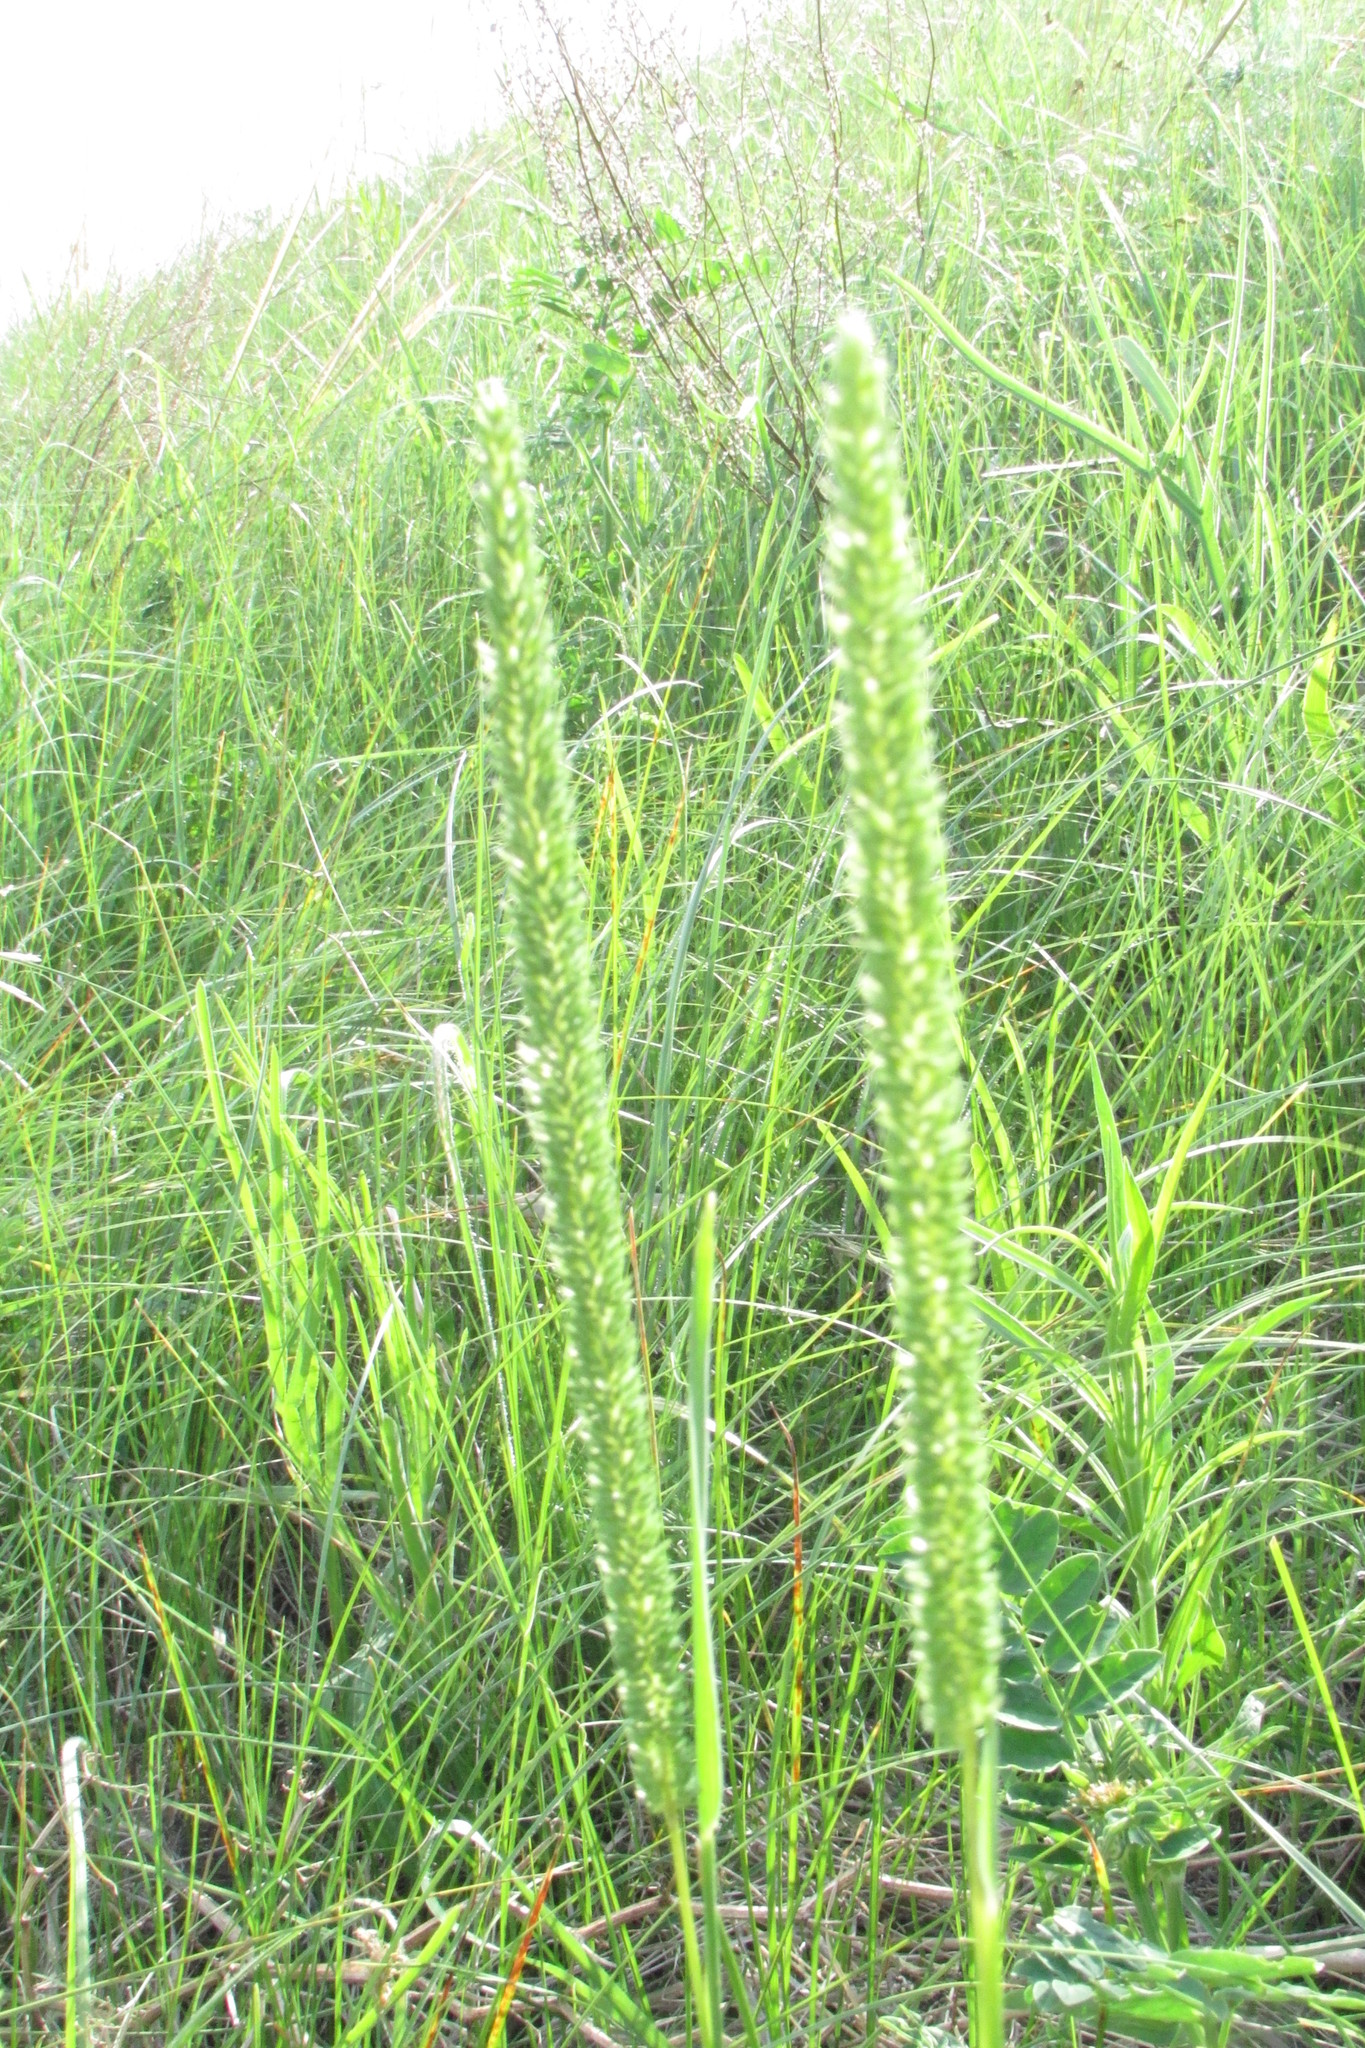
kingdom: Plantae
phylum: Tracheophyta
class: Liliopsida
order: Poales
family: Poaceae
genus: Phleum
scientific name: Phleum phleoides
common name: Purple-stem cat's-tail
